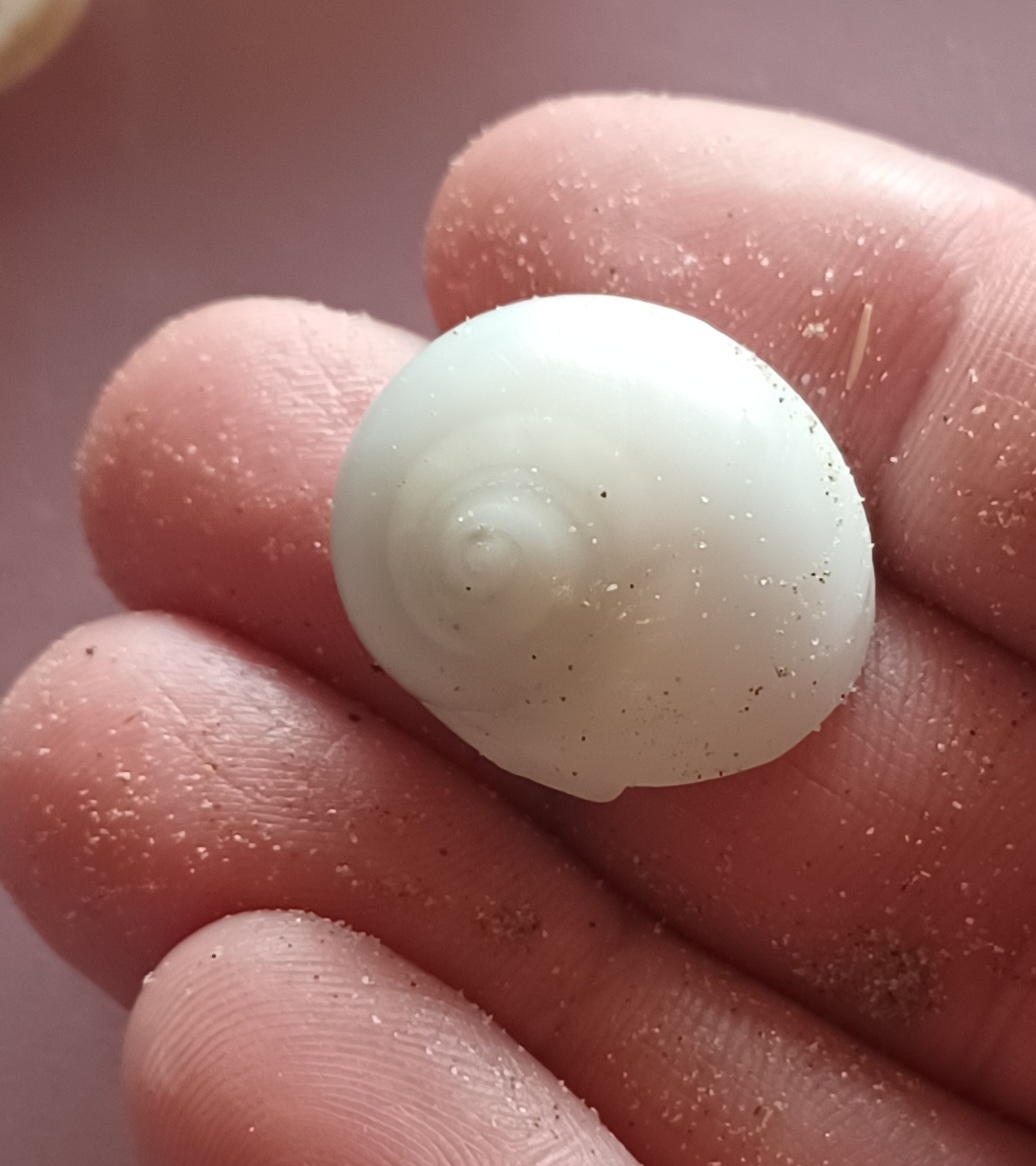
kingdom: Animalia
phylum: Mollusca
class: Gastropoda
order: Littorinimorpha
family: Naticidae
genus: Conuber
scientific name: Conuber incei
